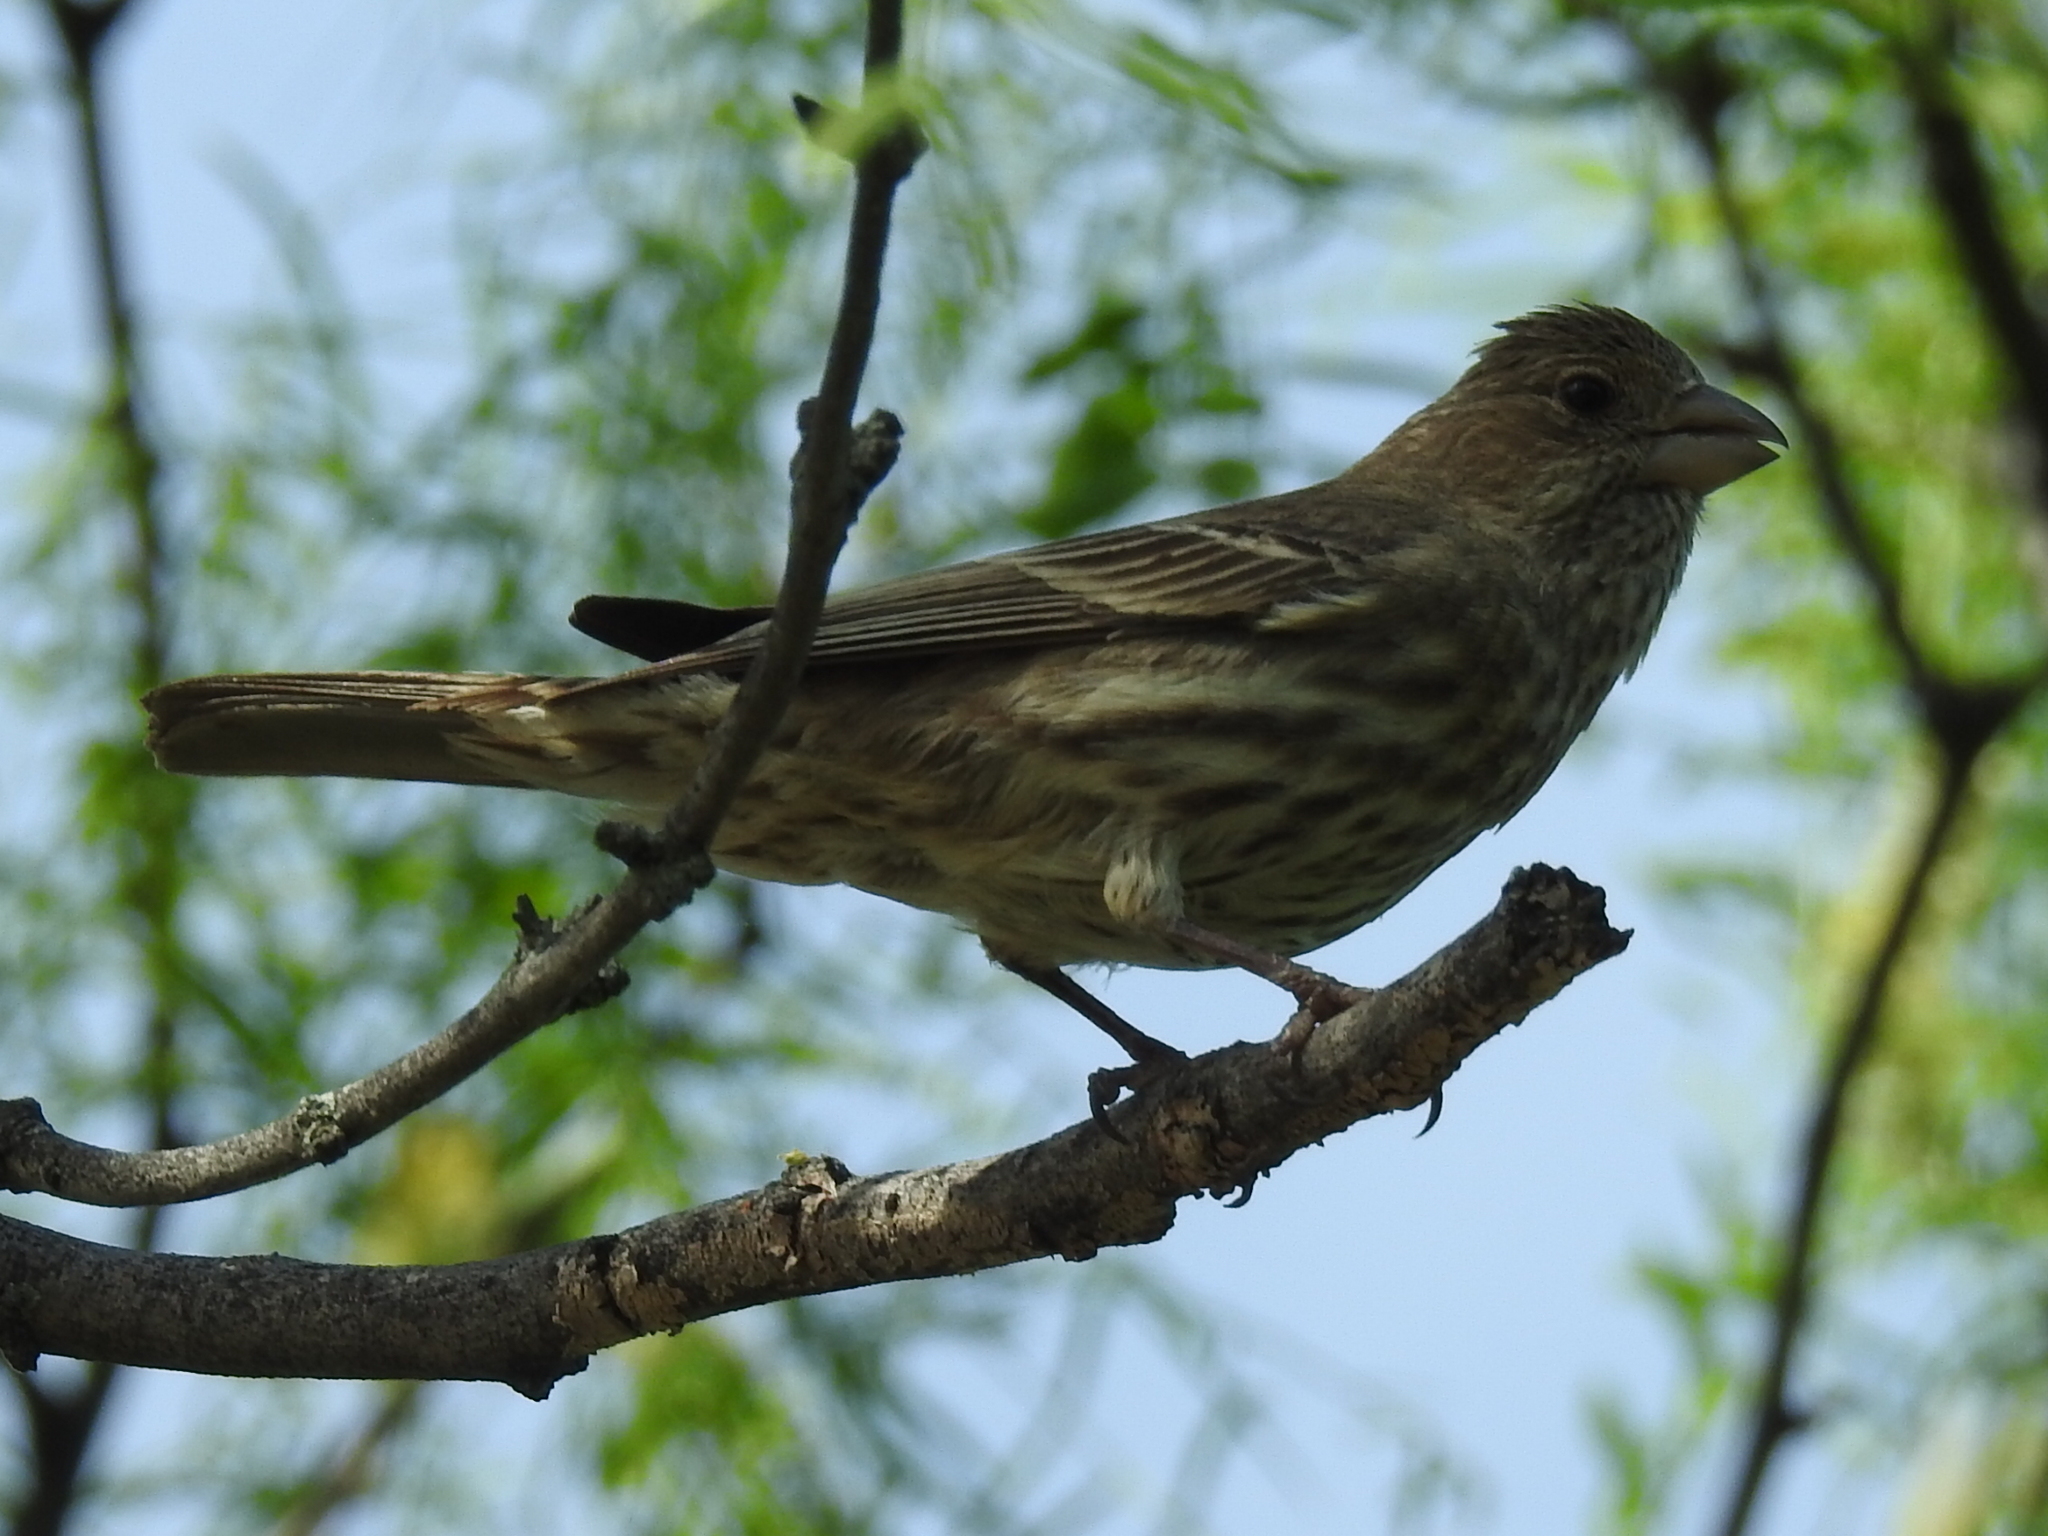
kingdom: Animalia
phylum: Chordata
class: Aves
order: Passeriformes
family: Fringillidae
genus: Haemorhous
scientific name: Haemorhous mexicanus
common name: House finch
